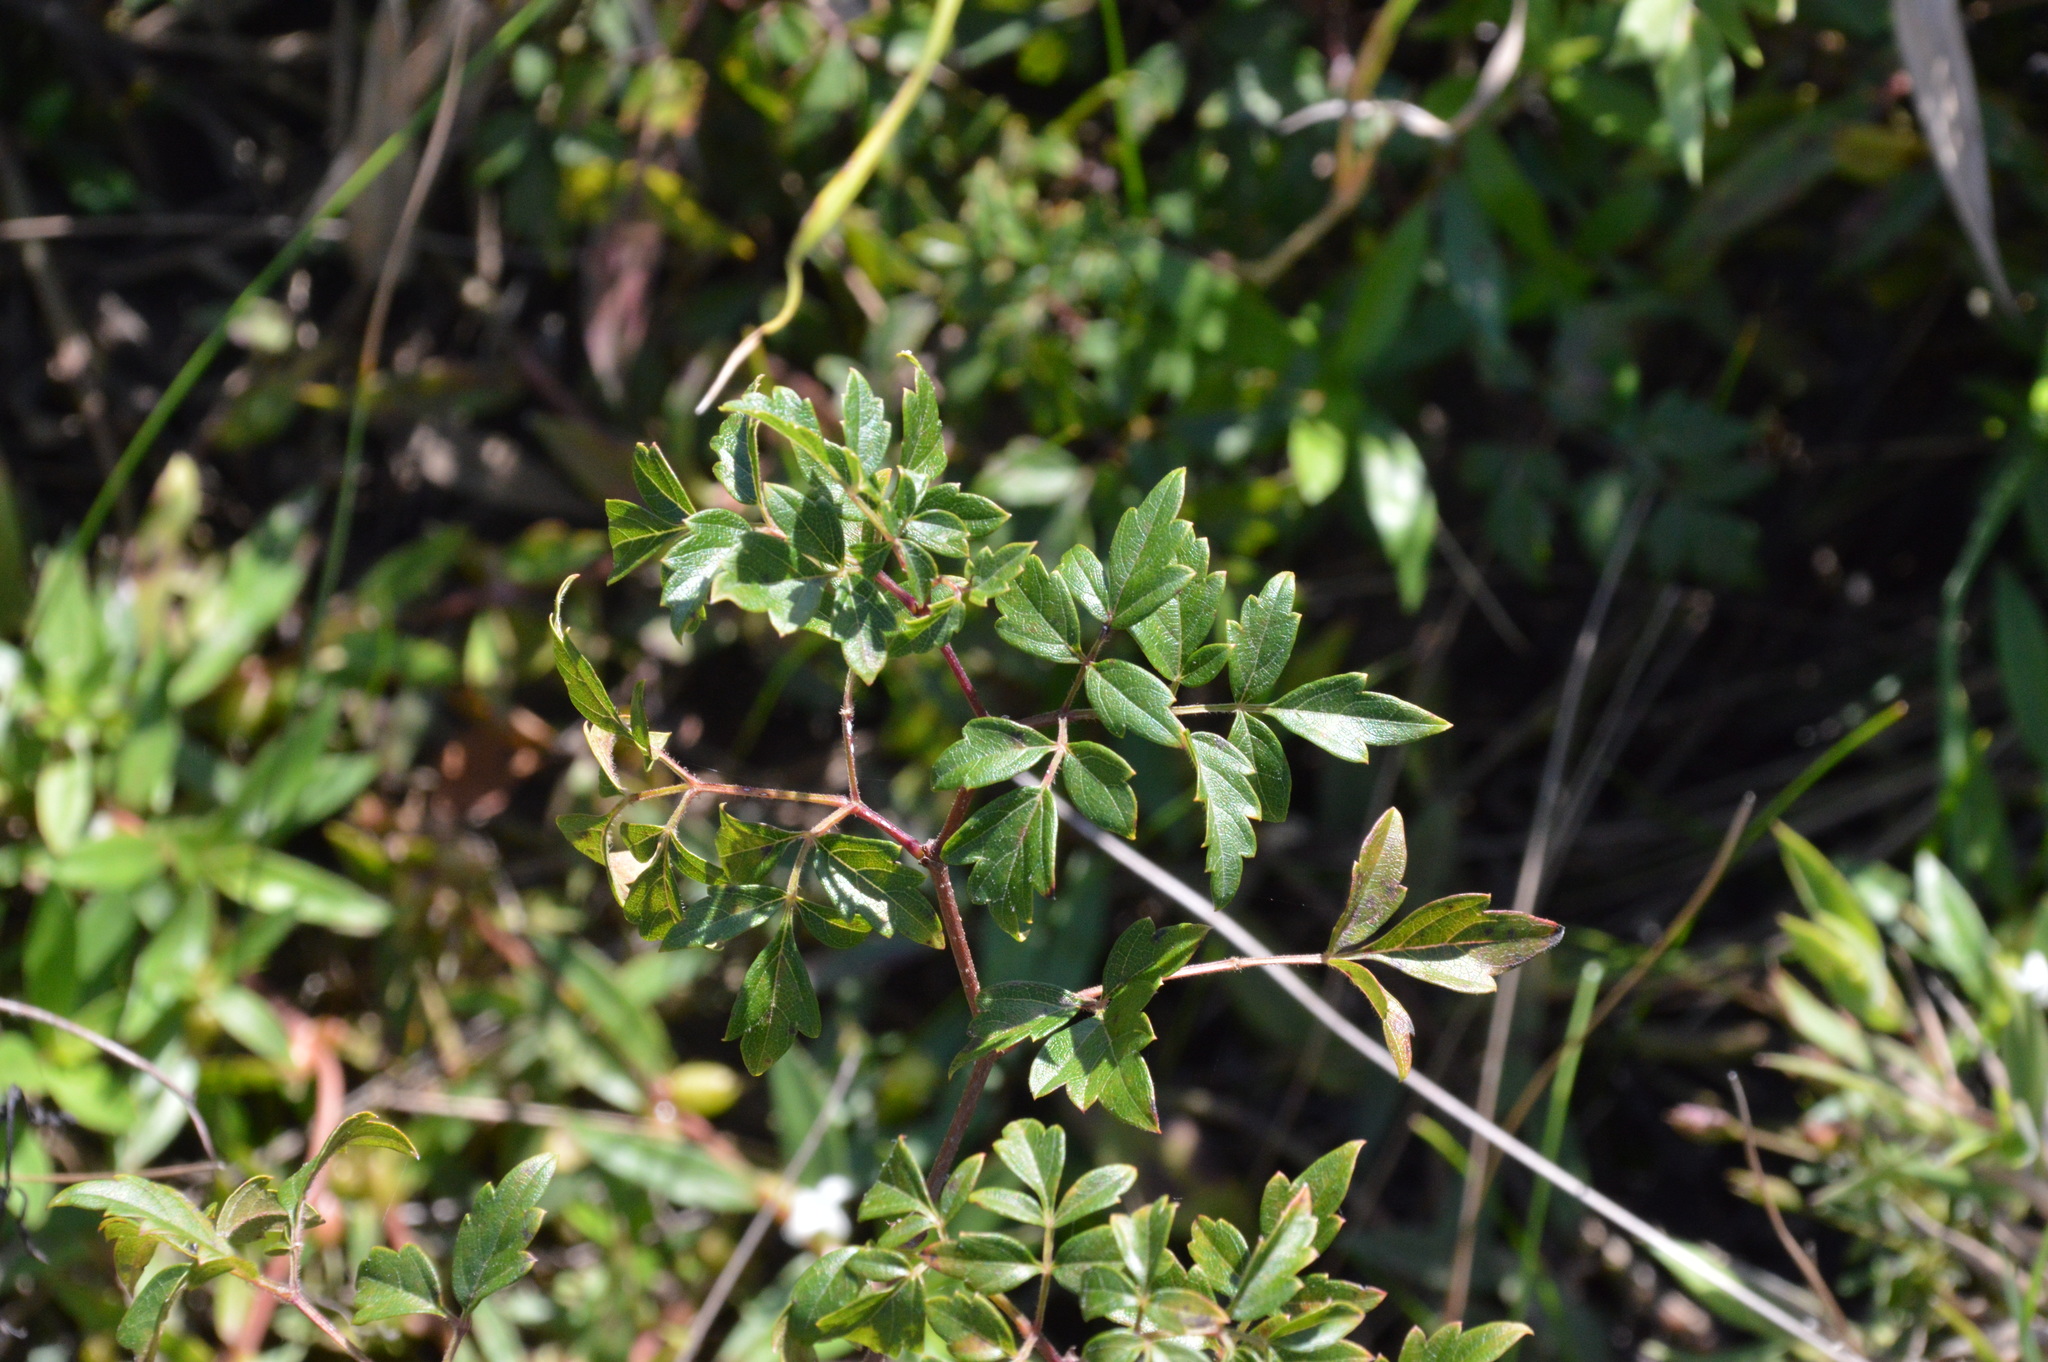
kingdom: Plantae
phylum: Tracheophyta
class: Magnoliopsida
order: Vitales
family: Vitaceae
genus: Nekemias
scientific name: Nekemias arborea
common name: Peppervine
